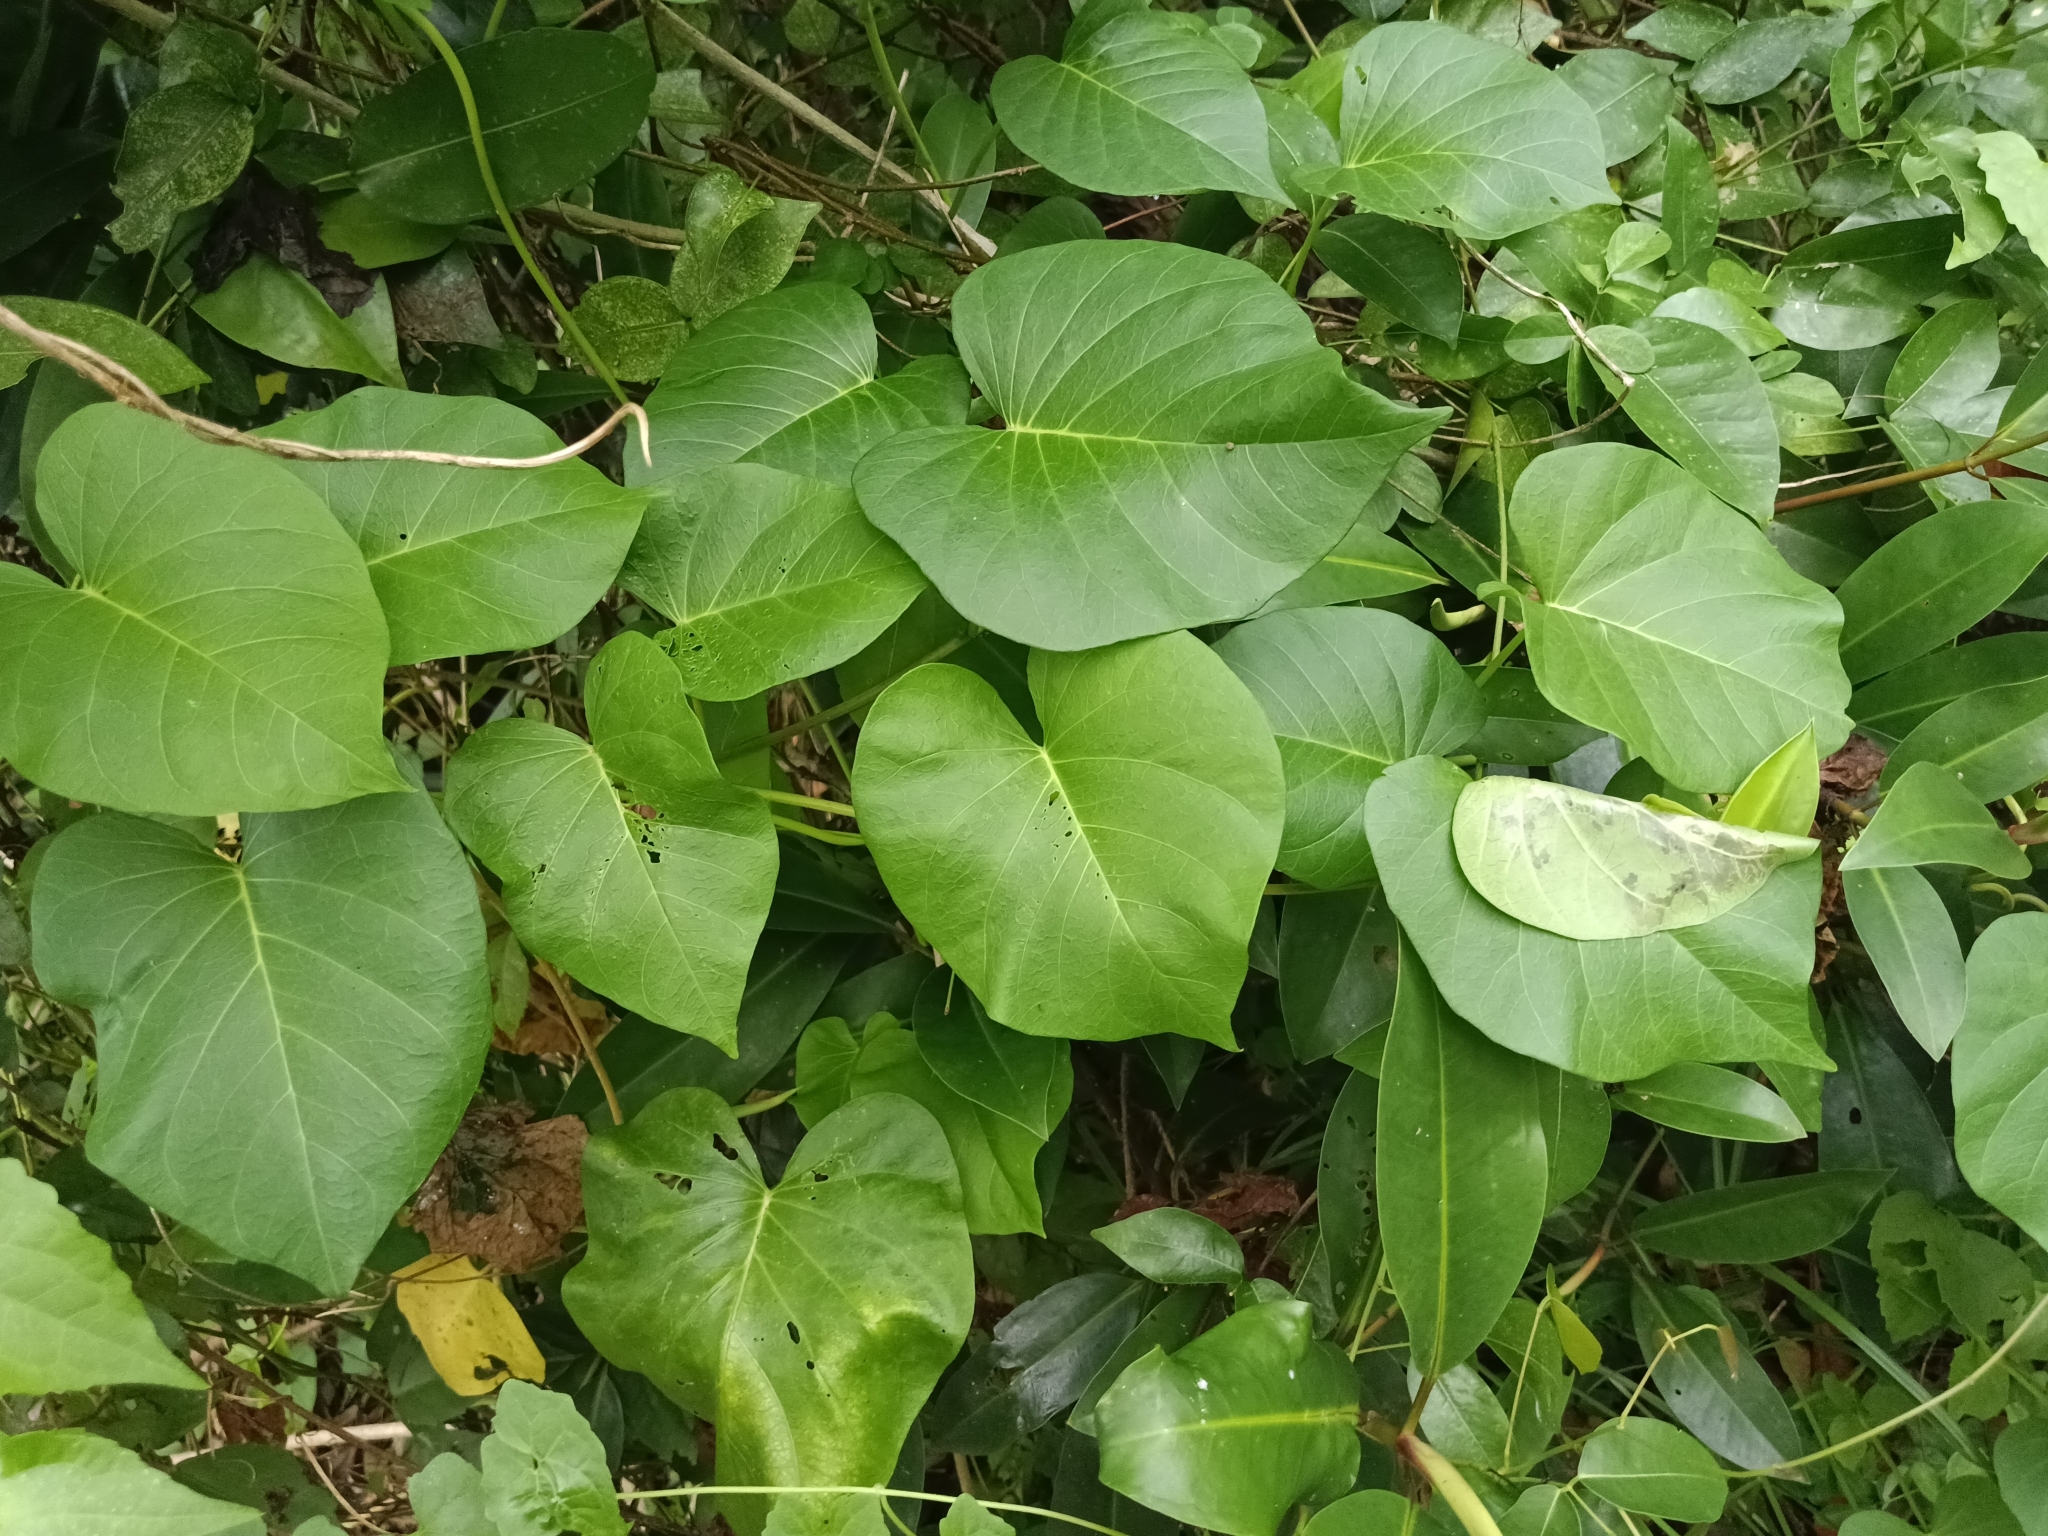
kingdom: Plantae
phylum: Tracheophyta
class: Magnoliopsida
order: Solanales
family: Convolvulaceae
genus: Ipomoea
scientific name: Ipomoea violacea
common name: Beach moonflower
